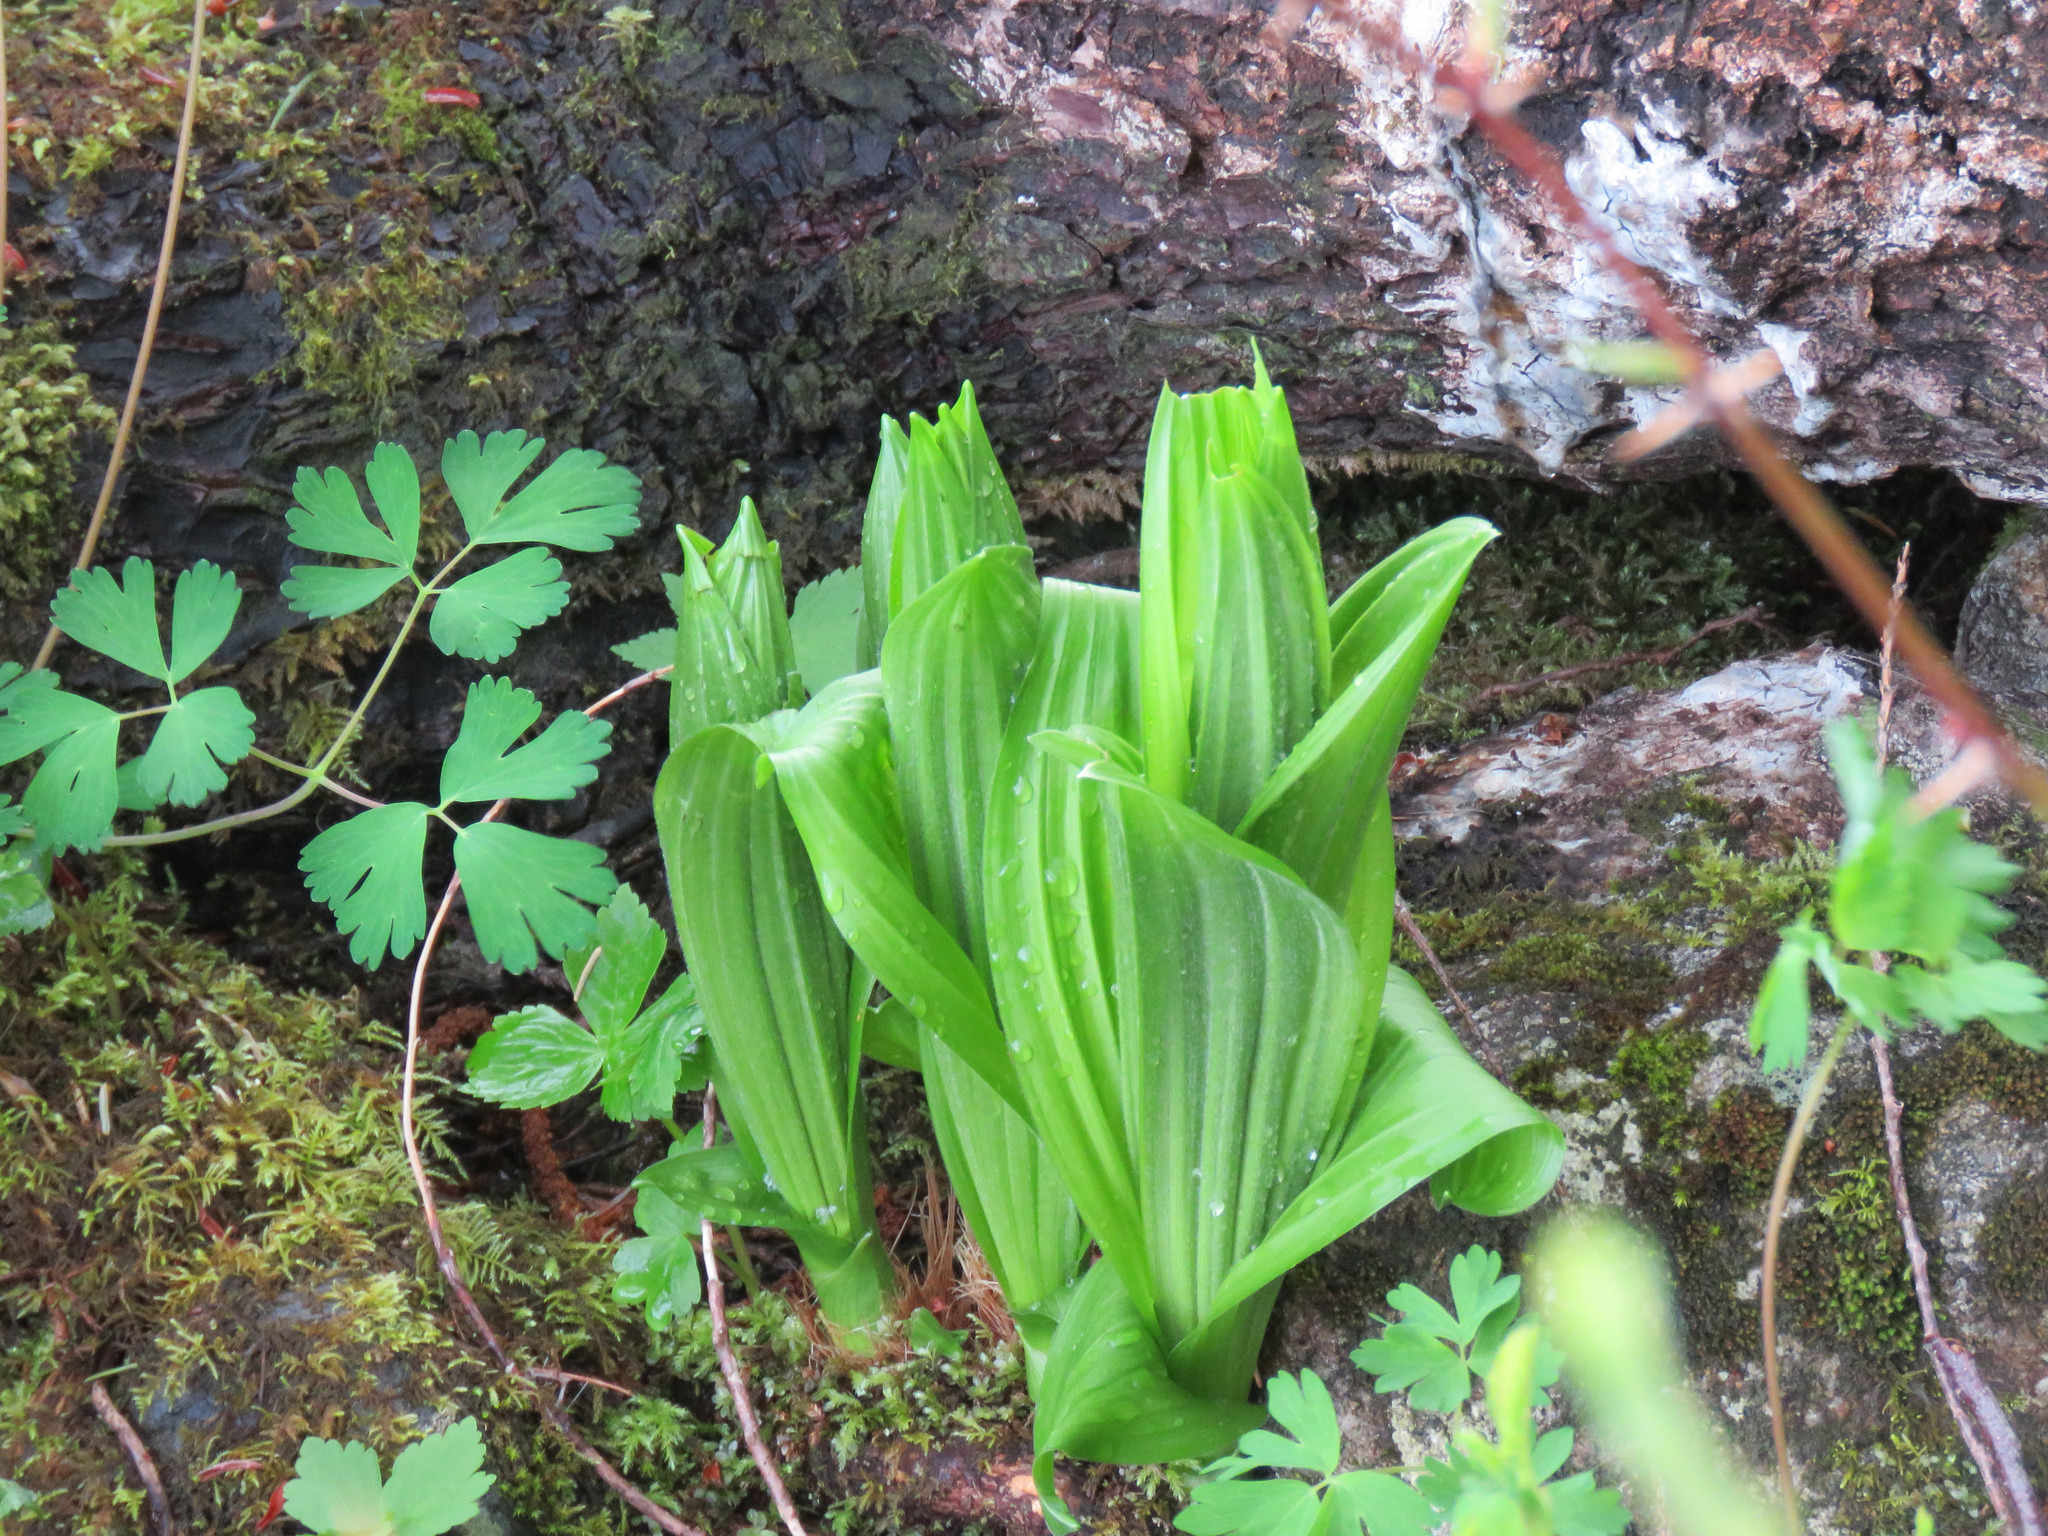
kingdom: Plantae
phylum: Tracheophyta
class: Liliopsida
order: Liliales
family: Melanthiaceae
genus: Veratrum
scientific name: Veratrum viride
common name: American false hellebore
